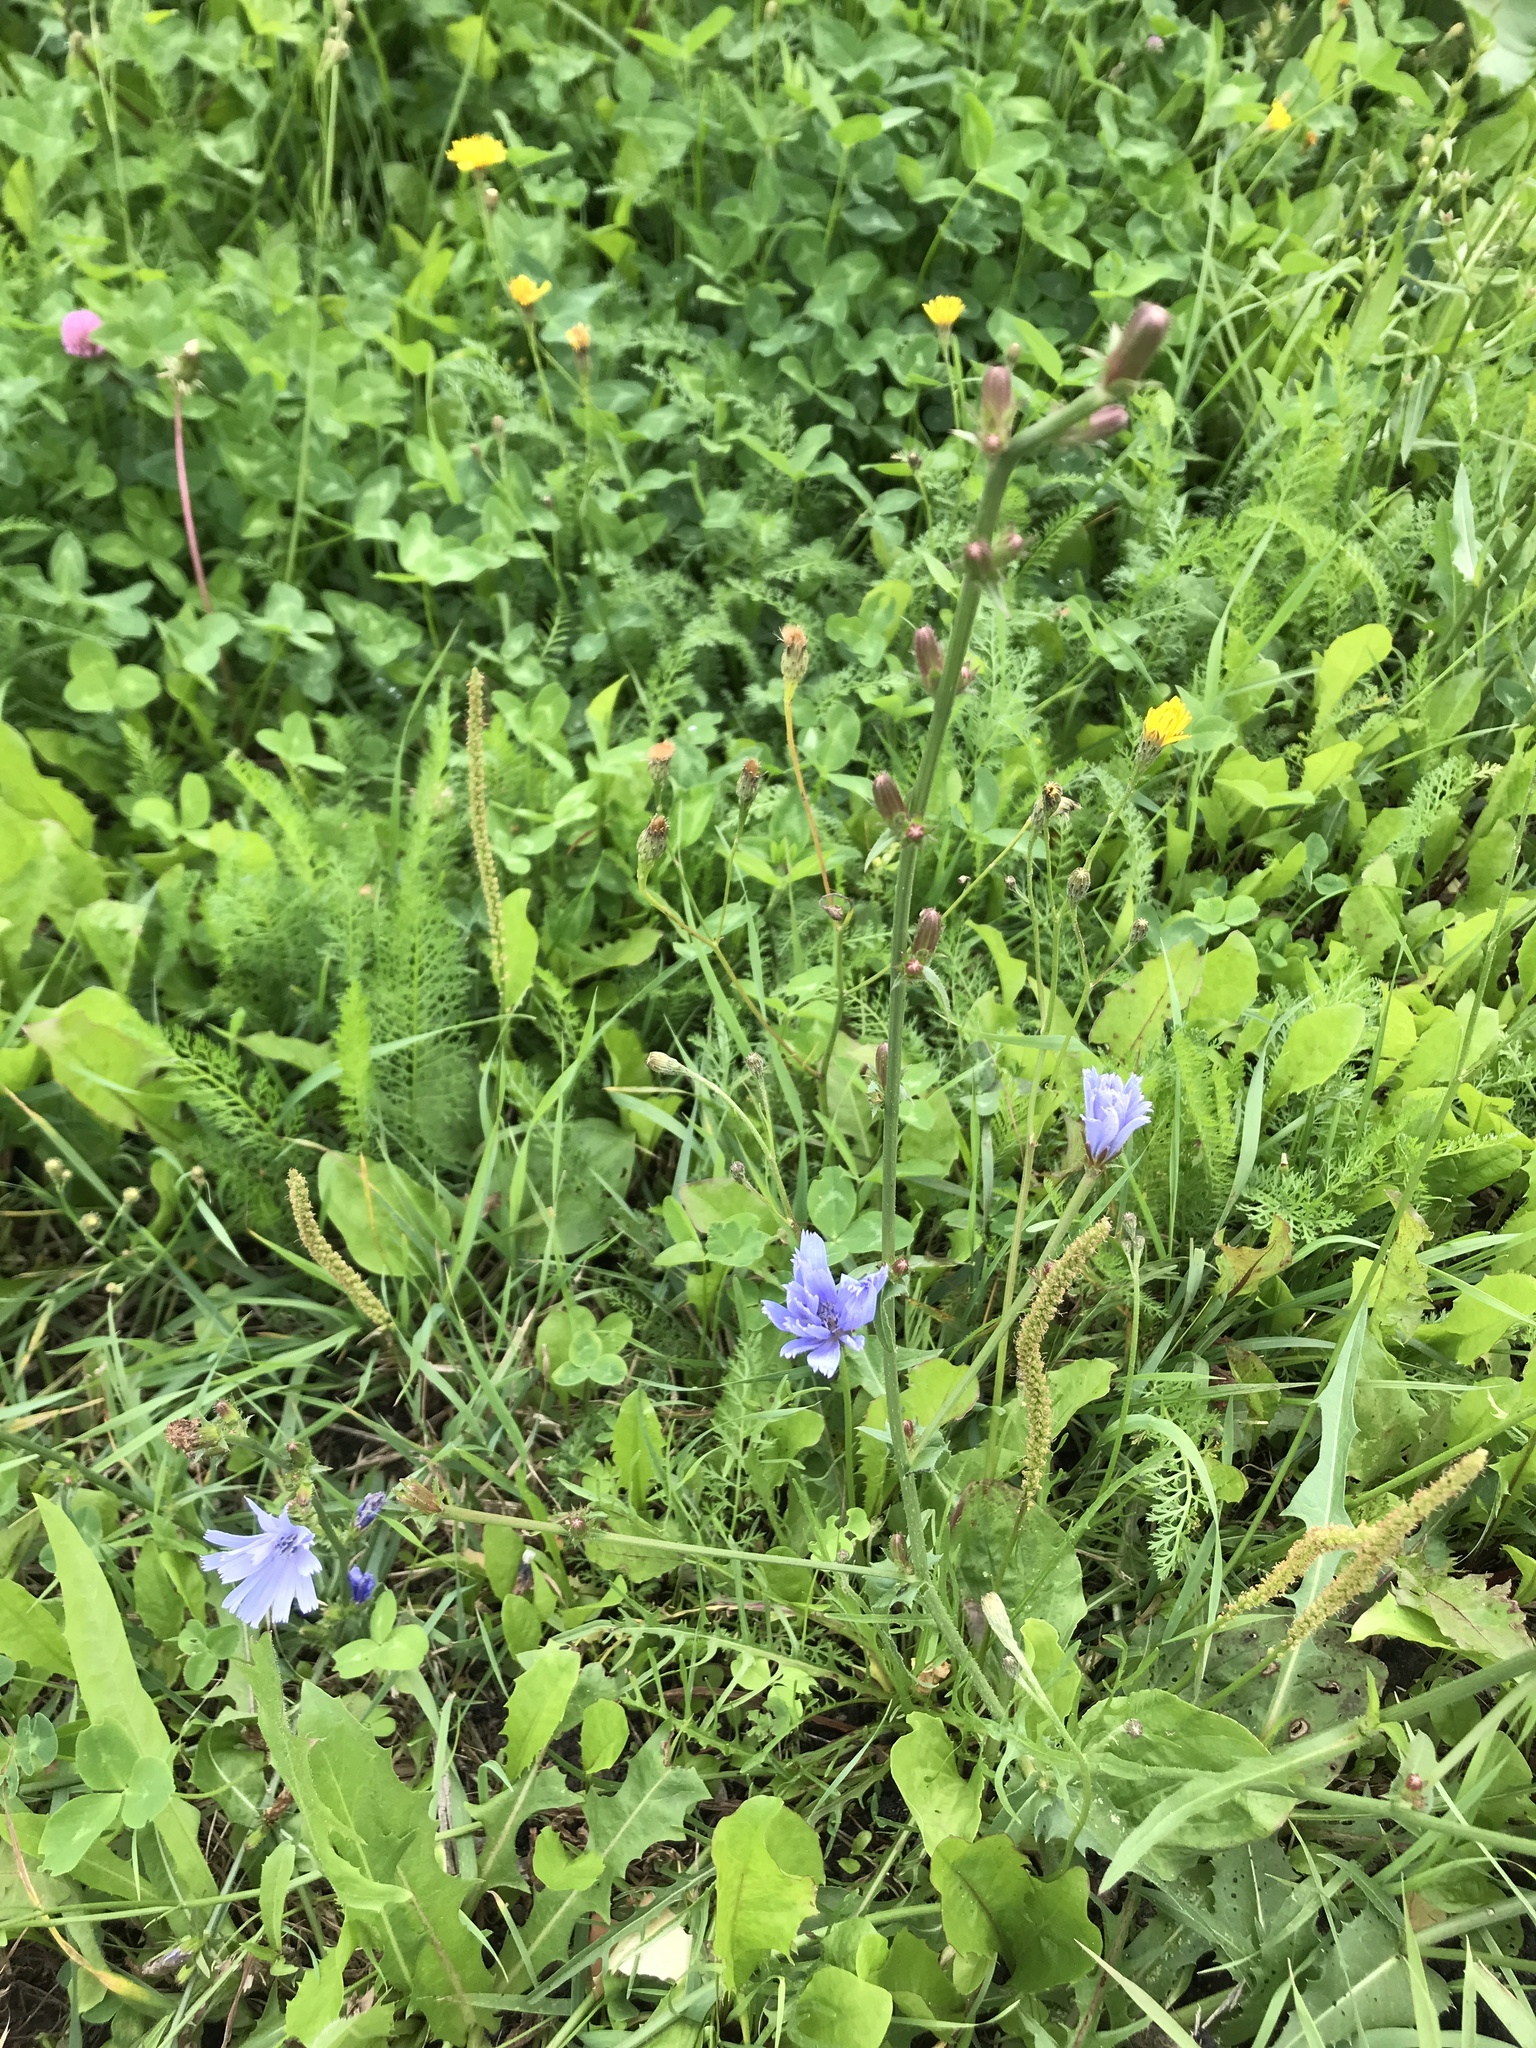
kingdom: Plantae
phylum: Tracheophyta
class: Magnoliopsida
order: Asterales
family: Asteraceae
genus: Cichorium
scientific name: Cichorium intybus
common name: Chicory
